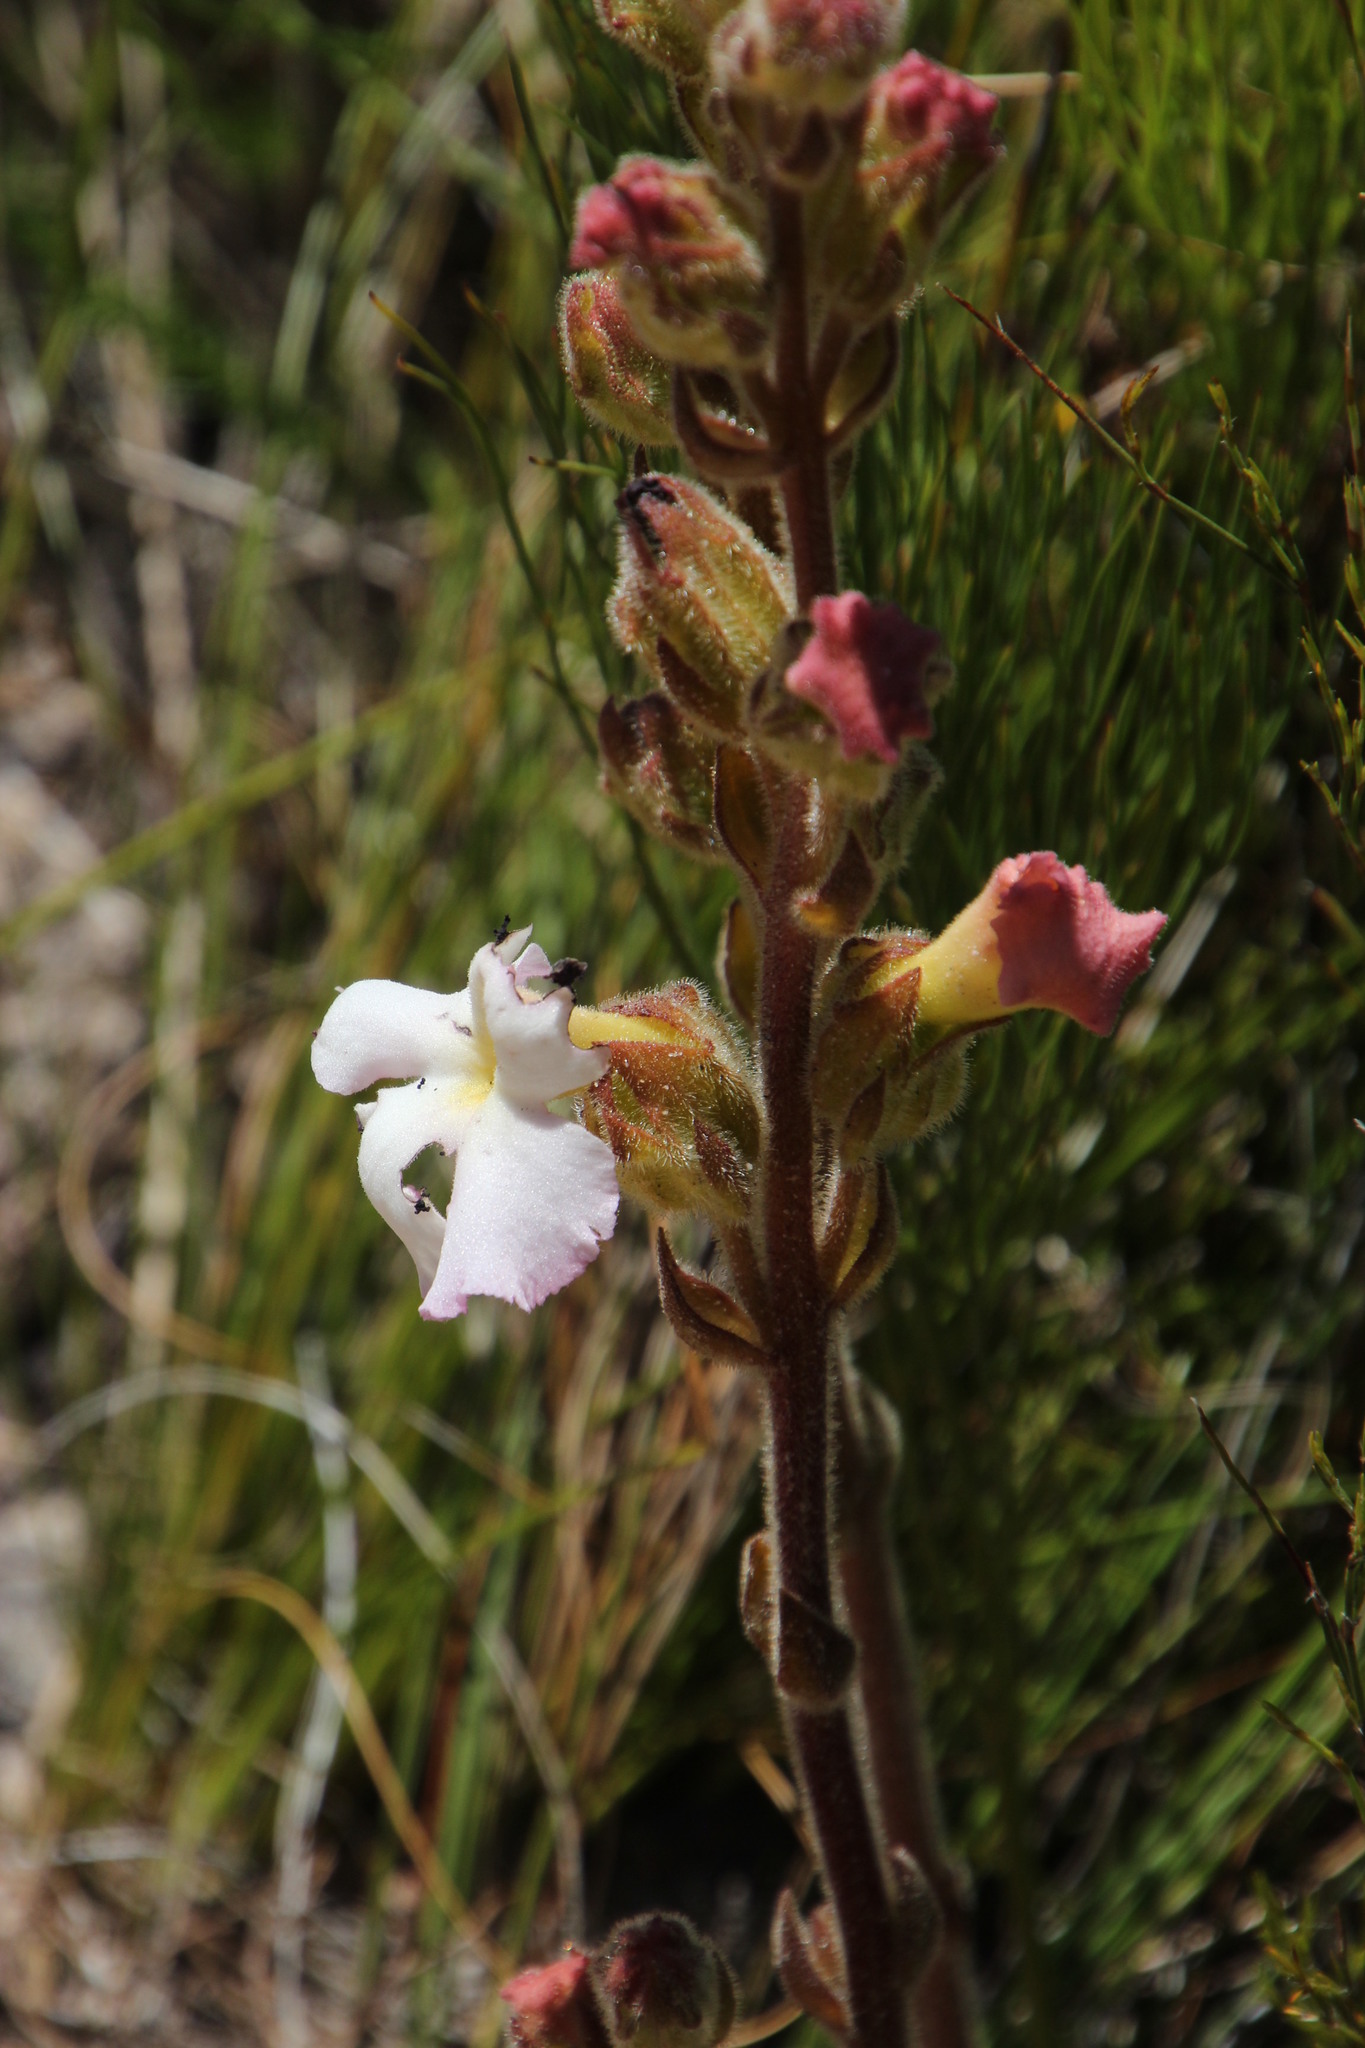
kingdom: Plantae
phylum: Tracheophyta
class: Magnoliopsida
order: Lamiales
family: Orobanchaceae
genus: Harveya
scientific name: Harveya capensis
